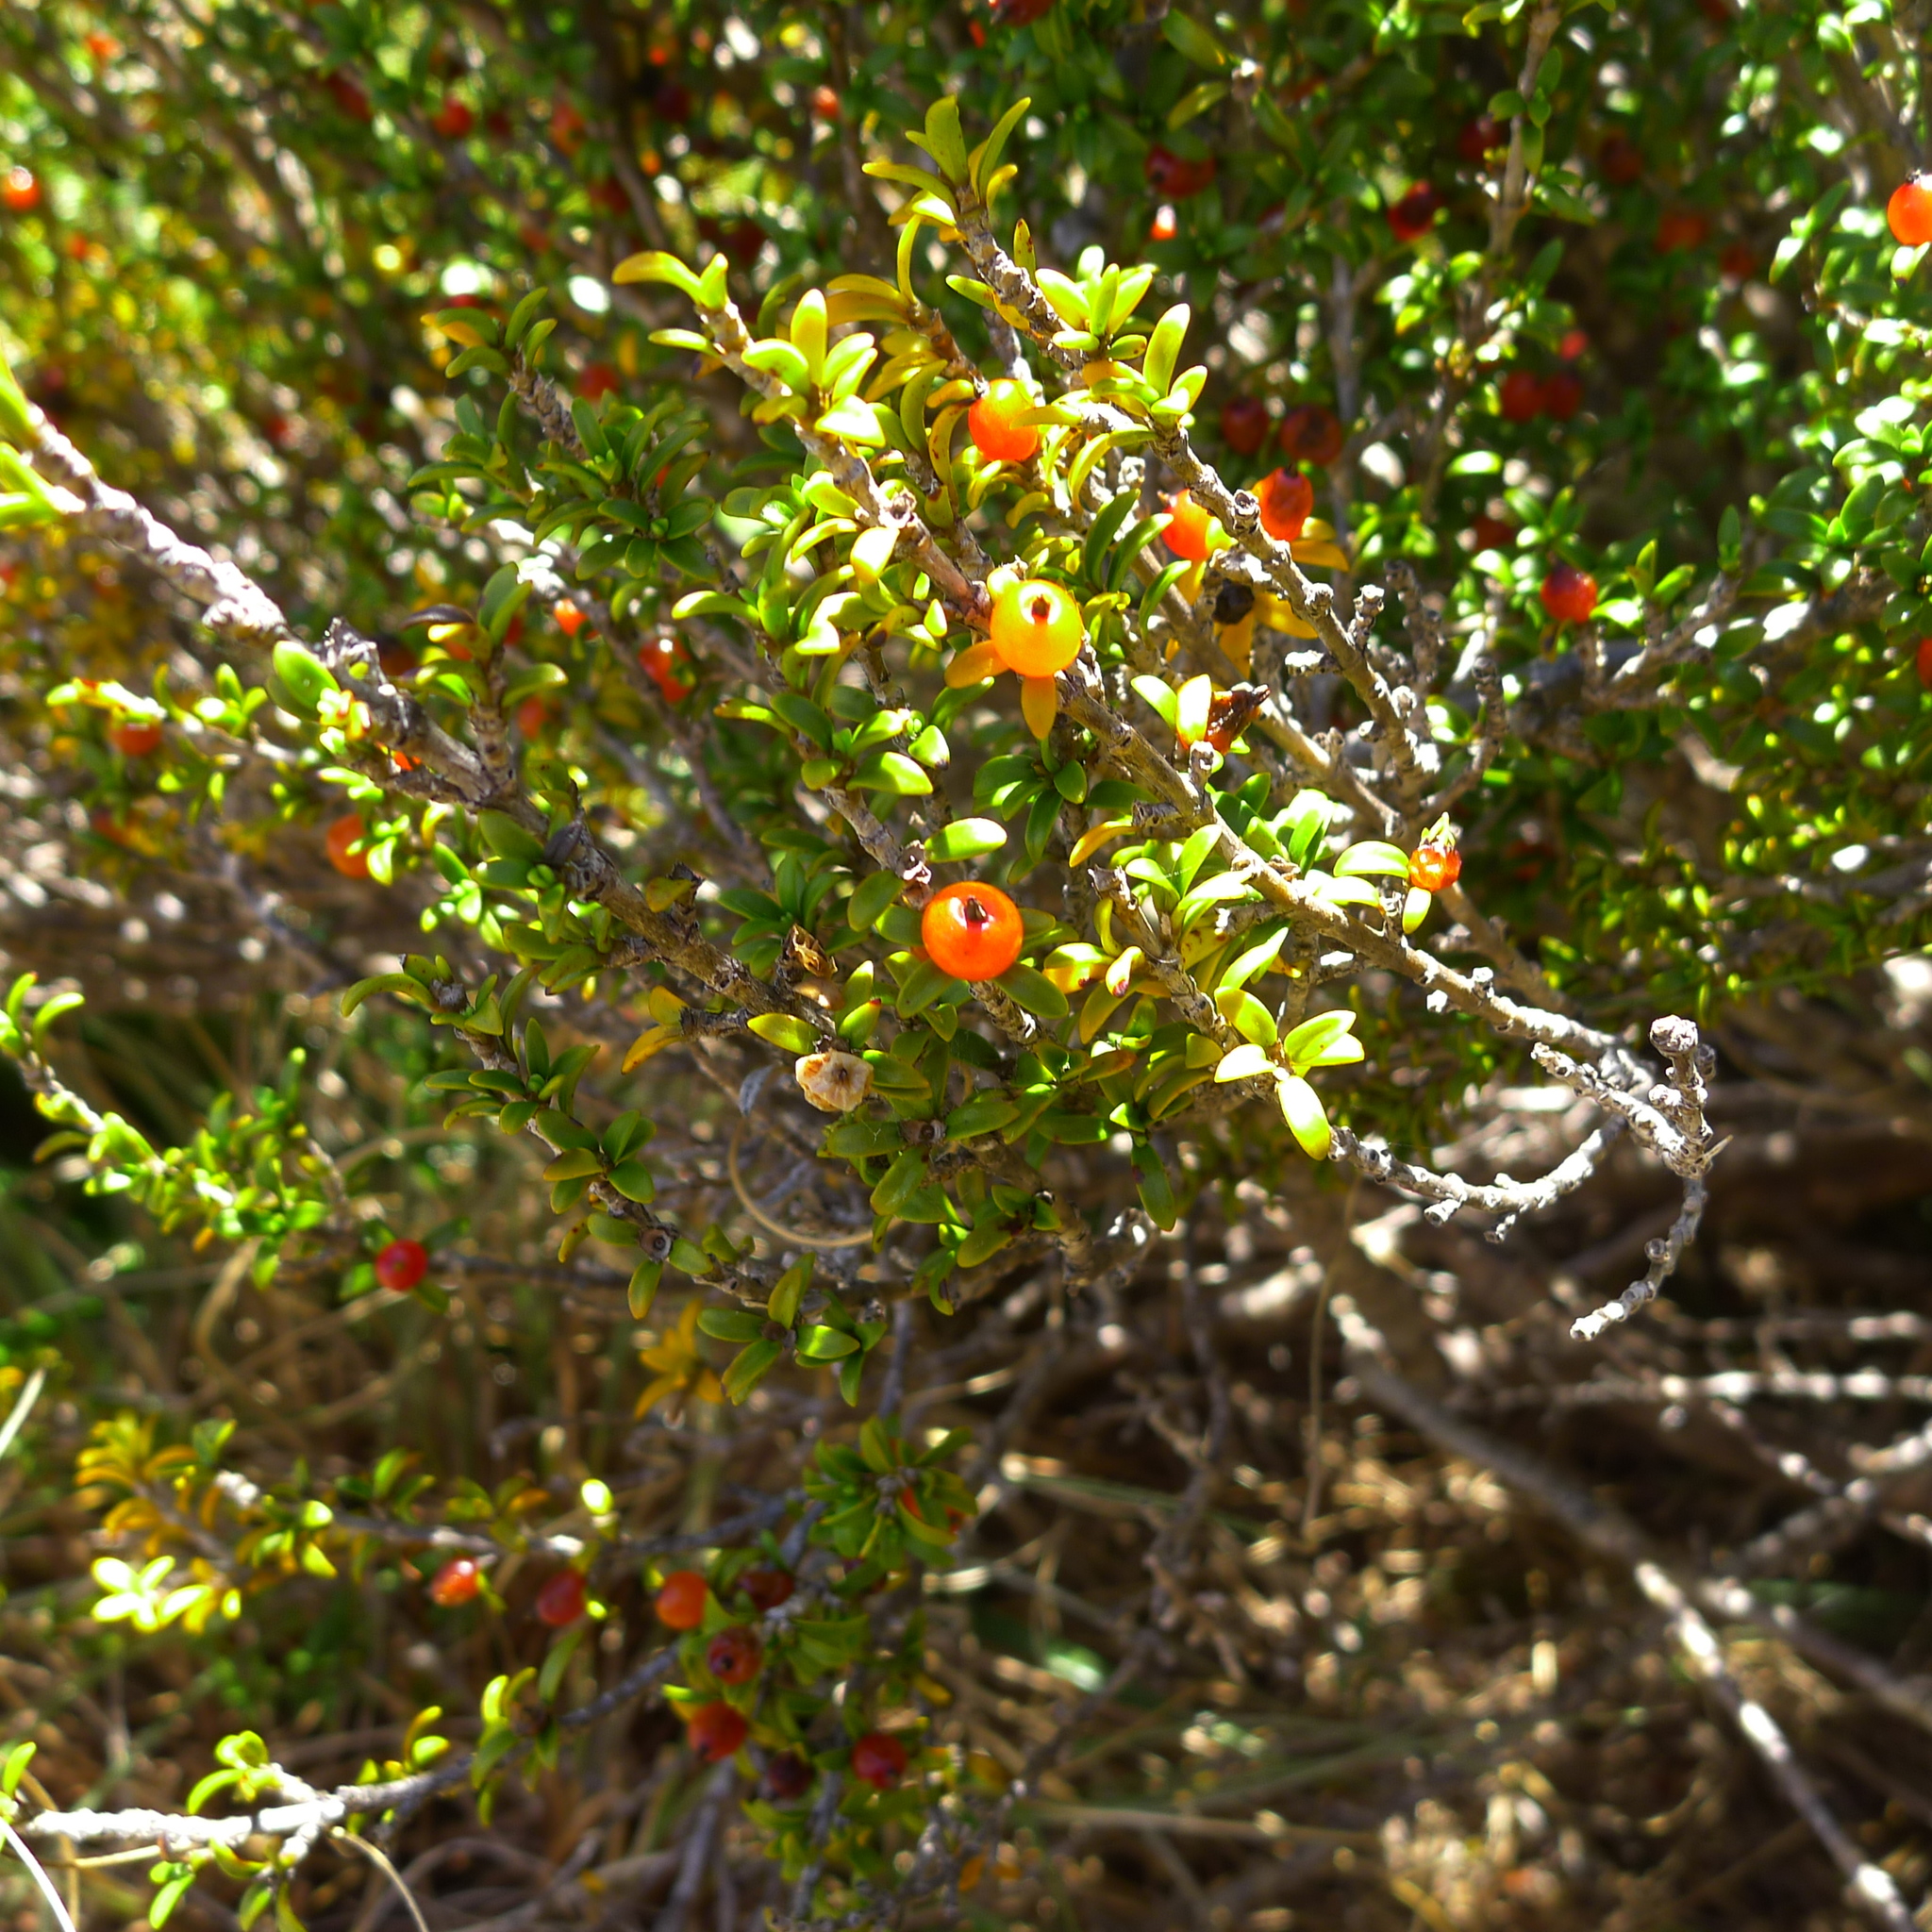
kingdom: Plantae
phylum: Tracheophyta
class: Magnoliopsida
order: Gentianales
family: Rubiaceae
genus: Coprosma
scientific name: Coprosma pseudocuneata
